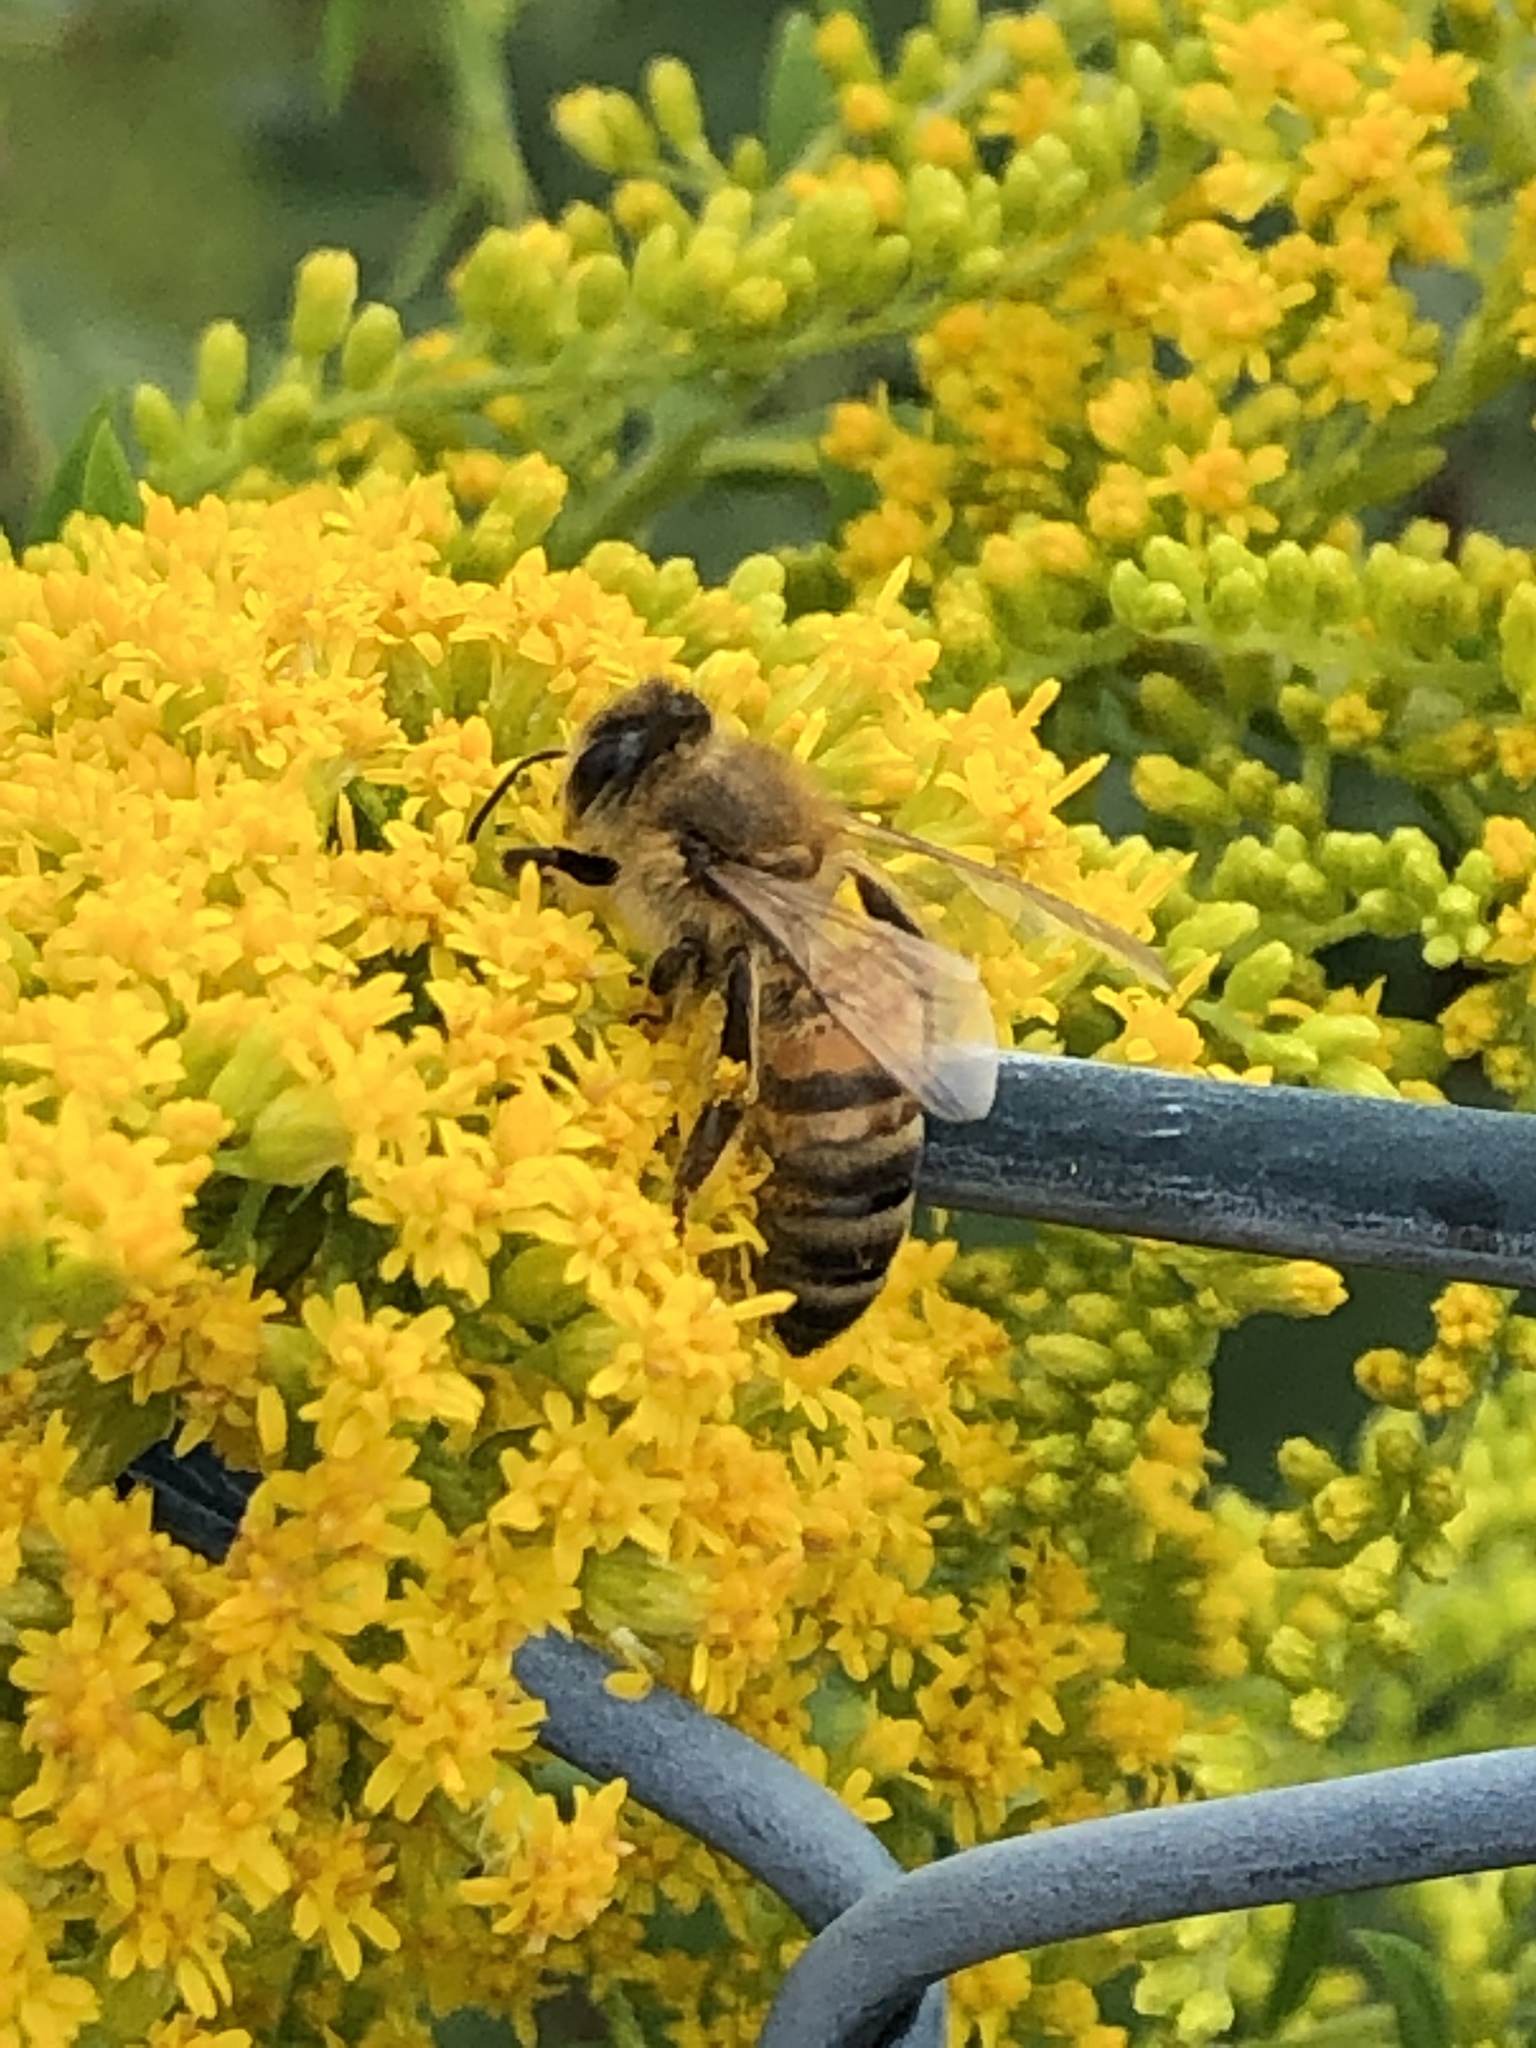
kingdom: Animalia
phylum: Arthropoda
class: Insecta
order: Hymenoptera
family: Apidae
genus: Apis
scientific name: Apis mellifera
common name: Honey bee
